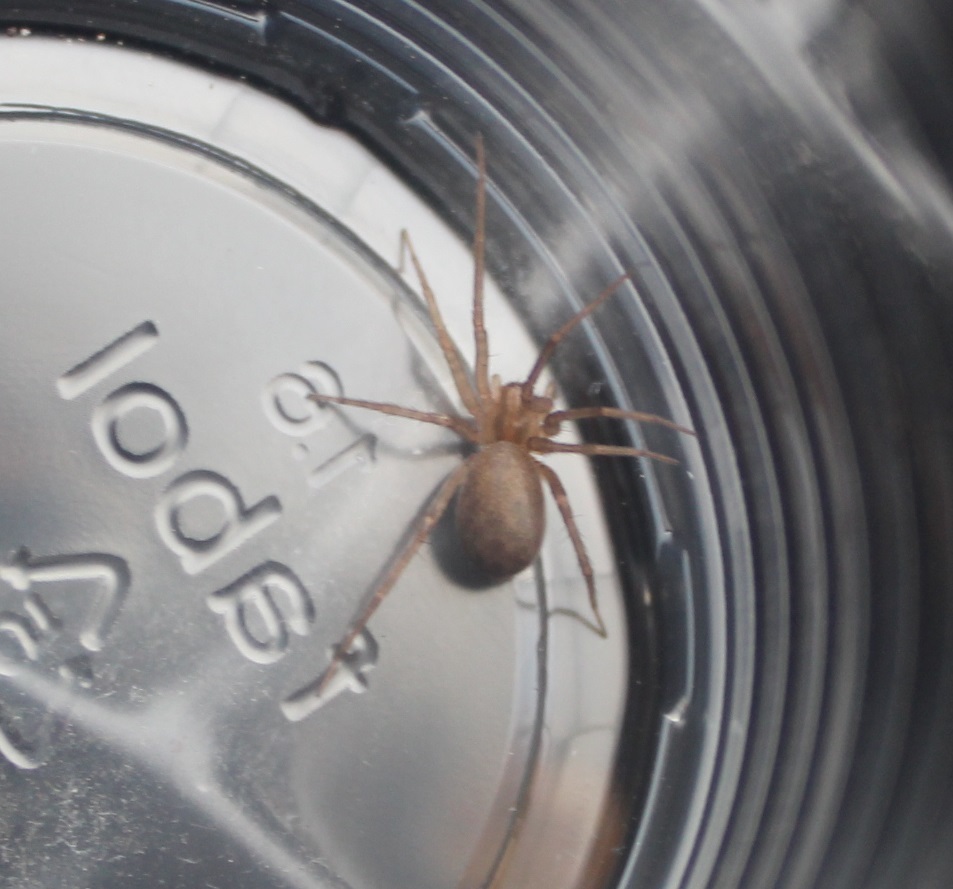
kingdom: Animalia
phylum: Arthropoda
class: Arachnida
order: Araneae
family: Agelenidae
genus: Tegenaria
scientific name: Tegenaria domestica
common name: Barn funnel weaver
